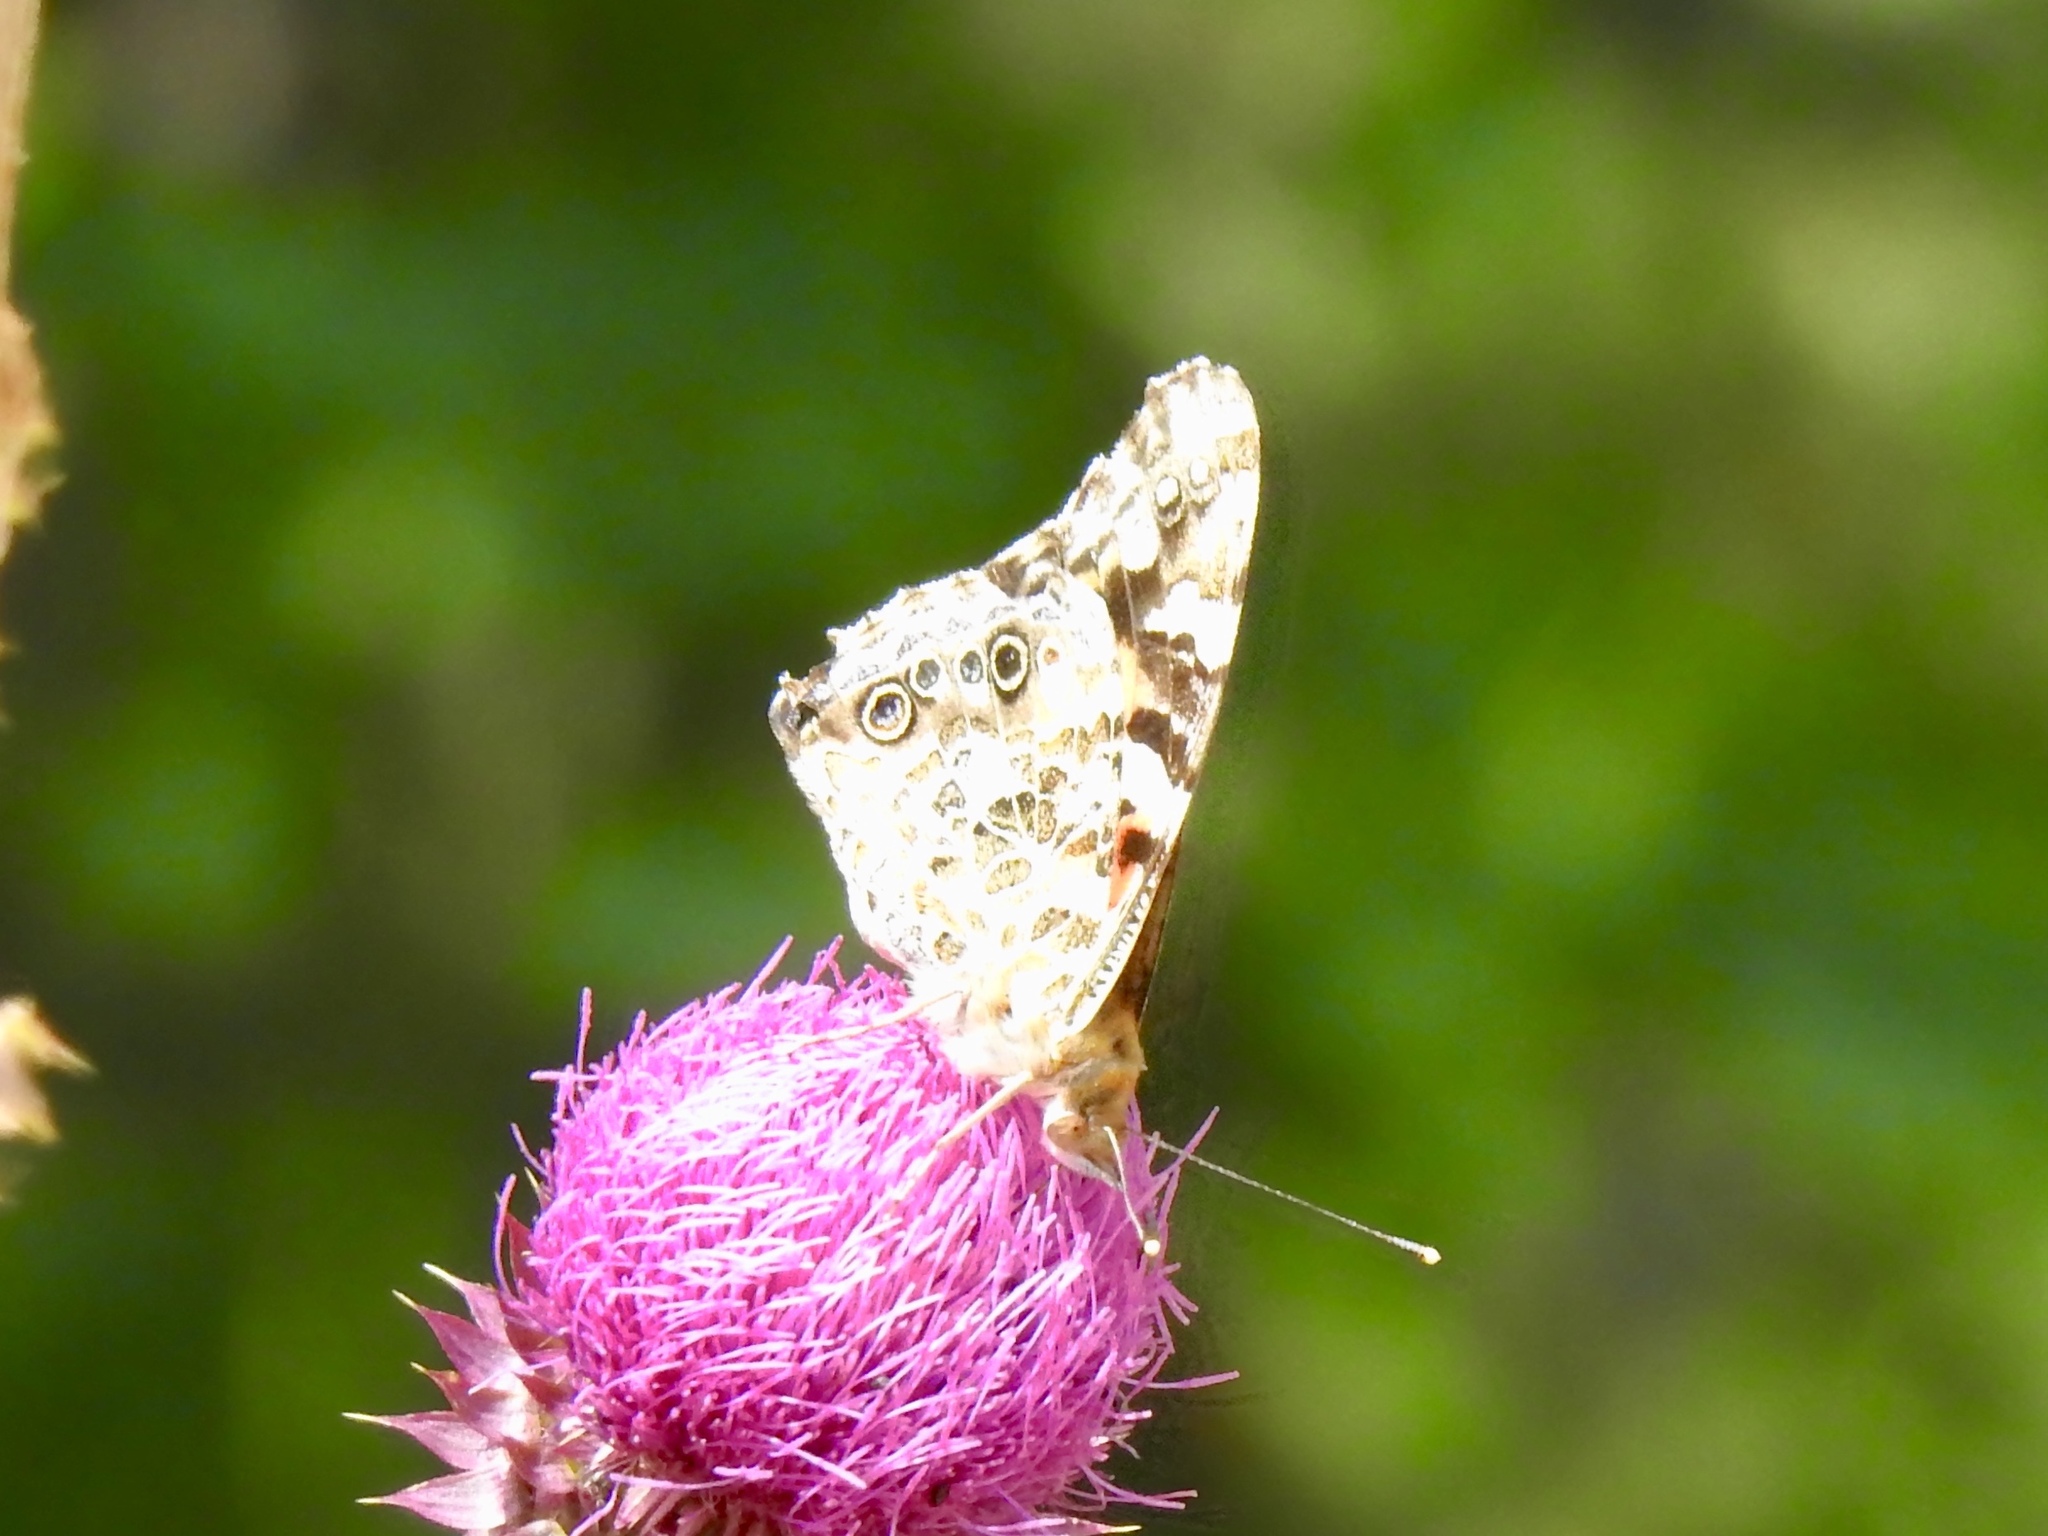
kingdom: Animalia
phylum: Arthropoda
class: Insecta
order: Lepidoptera
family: Nymphalidae
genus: Vanessa
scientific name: Vanessa cardui
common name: Painted lady
